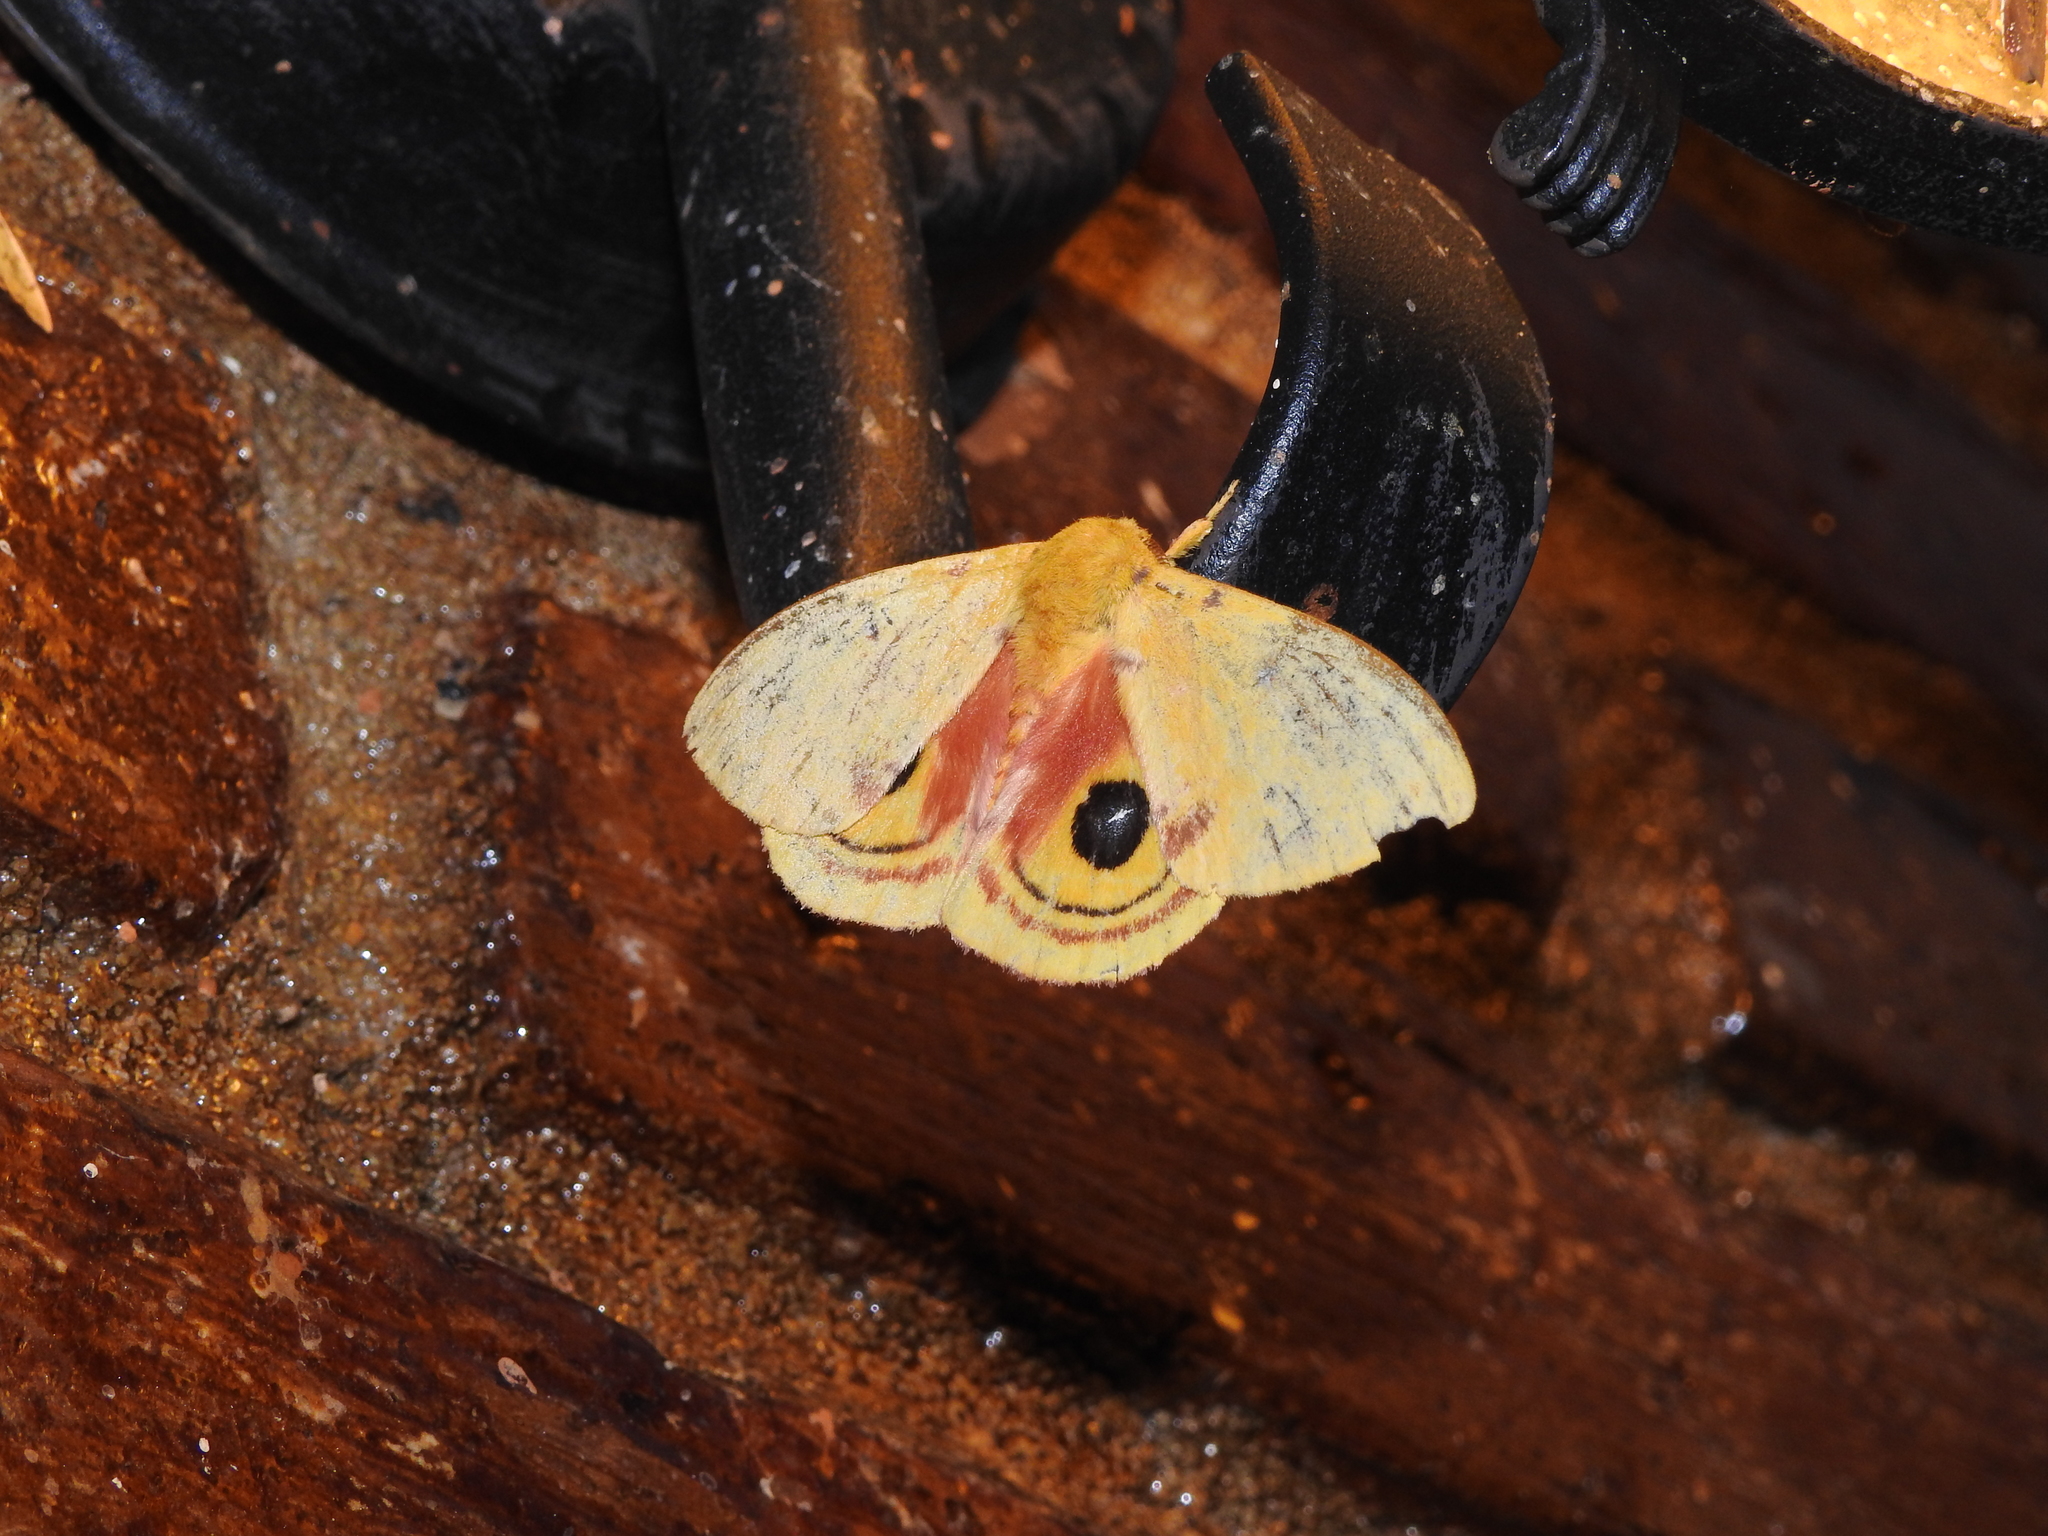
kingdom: Animalia
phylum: Arthropoda
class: Insecta
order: Lepidoptera
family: Saturniidae
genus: Automeris
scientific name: Automeris io
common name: Io moth
